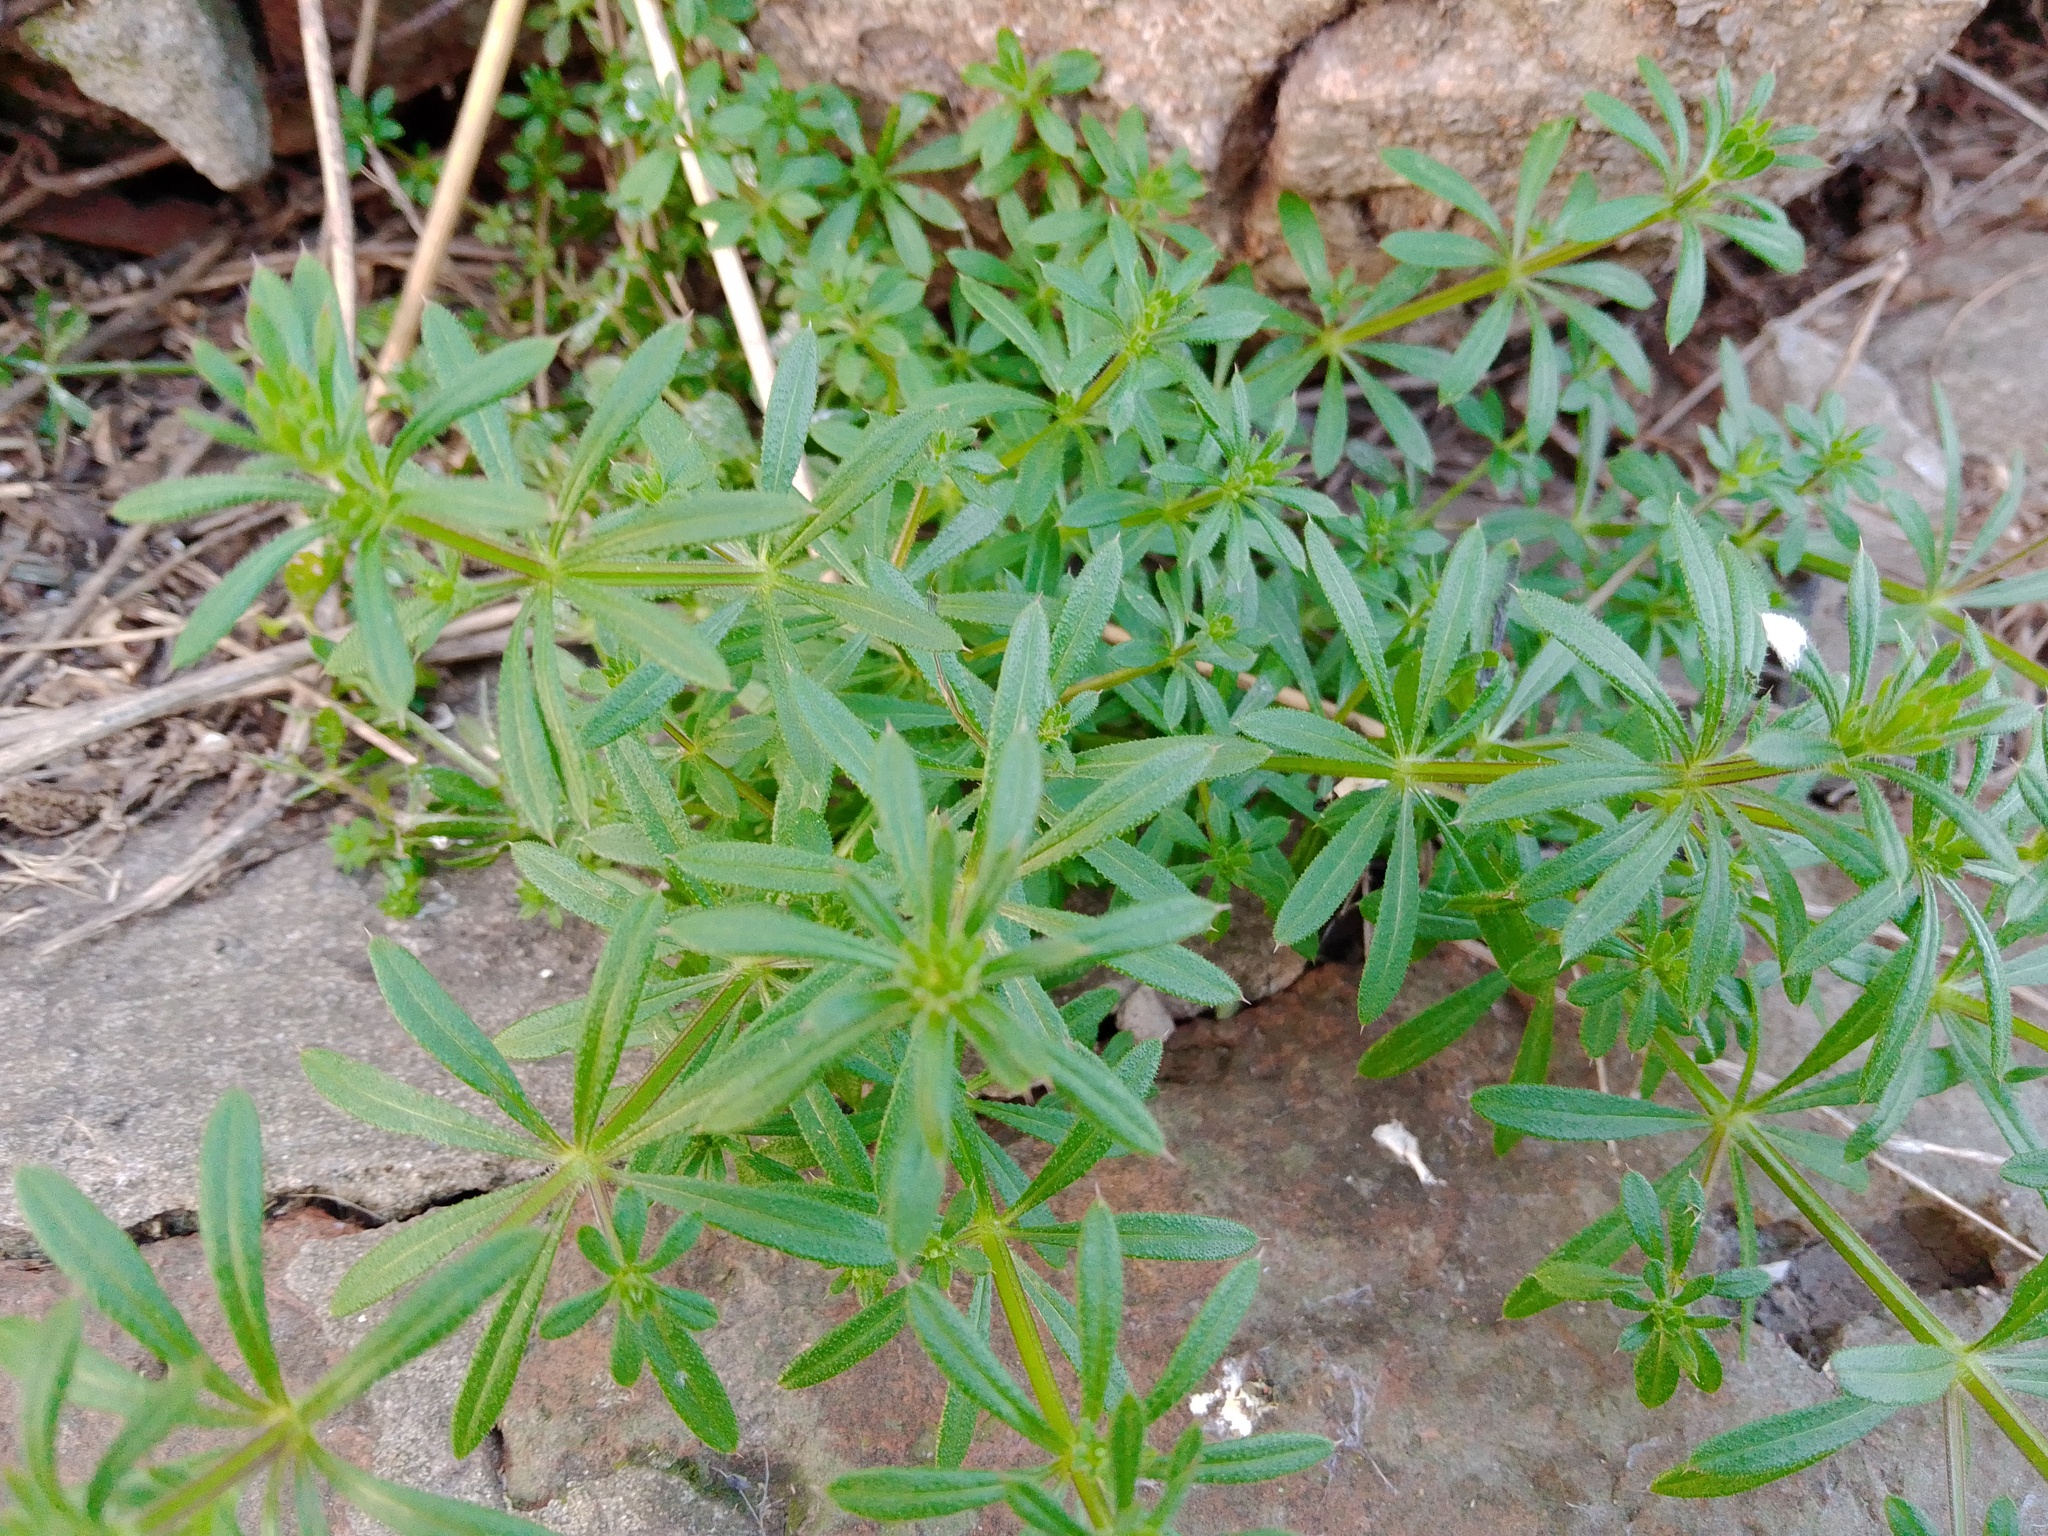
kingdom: Plantae
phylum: Tracheophyta
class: Magnoliopsida
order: Gentianales
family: Rubiaceae
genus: Galium
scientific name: Galium aparine
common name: Cleavers
